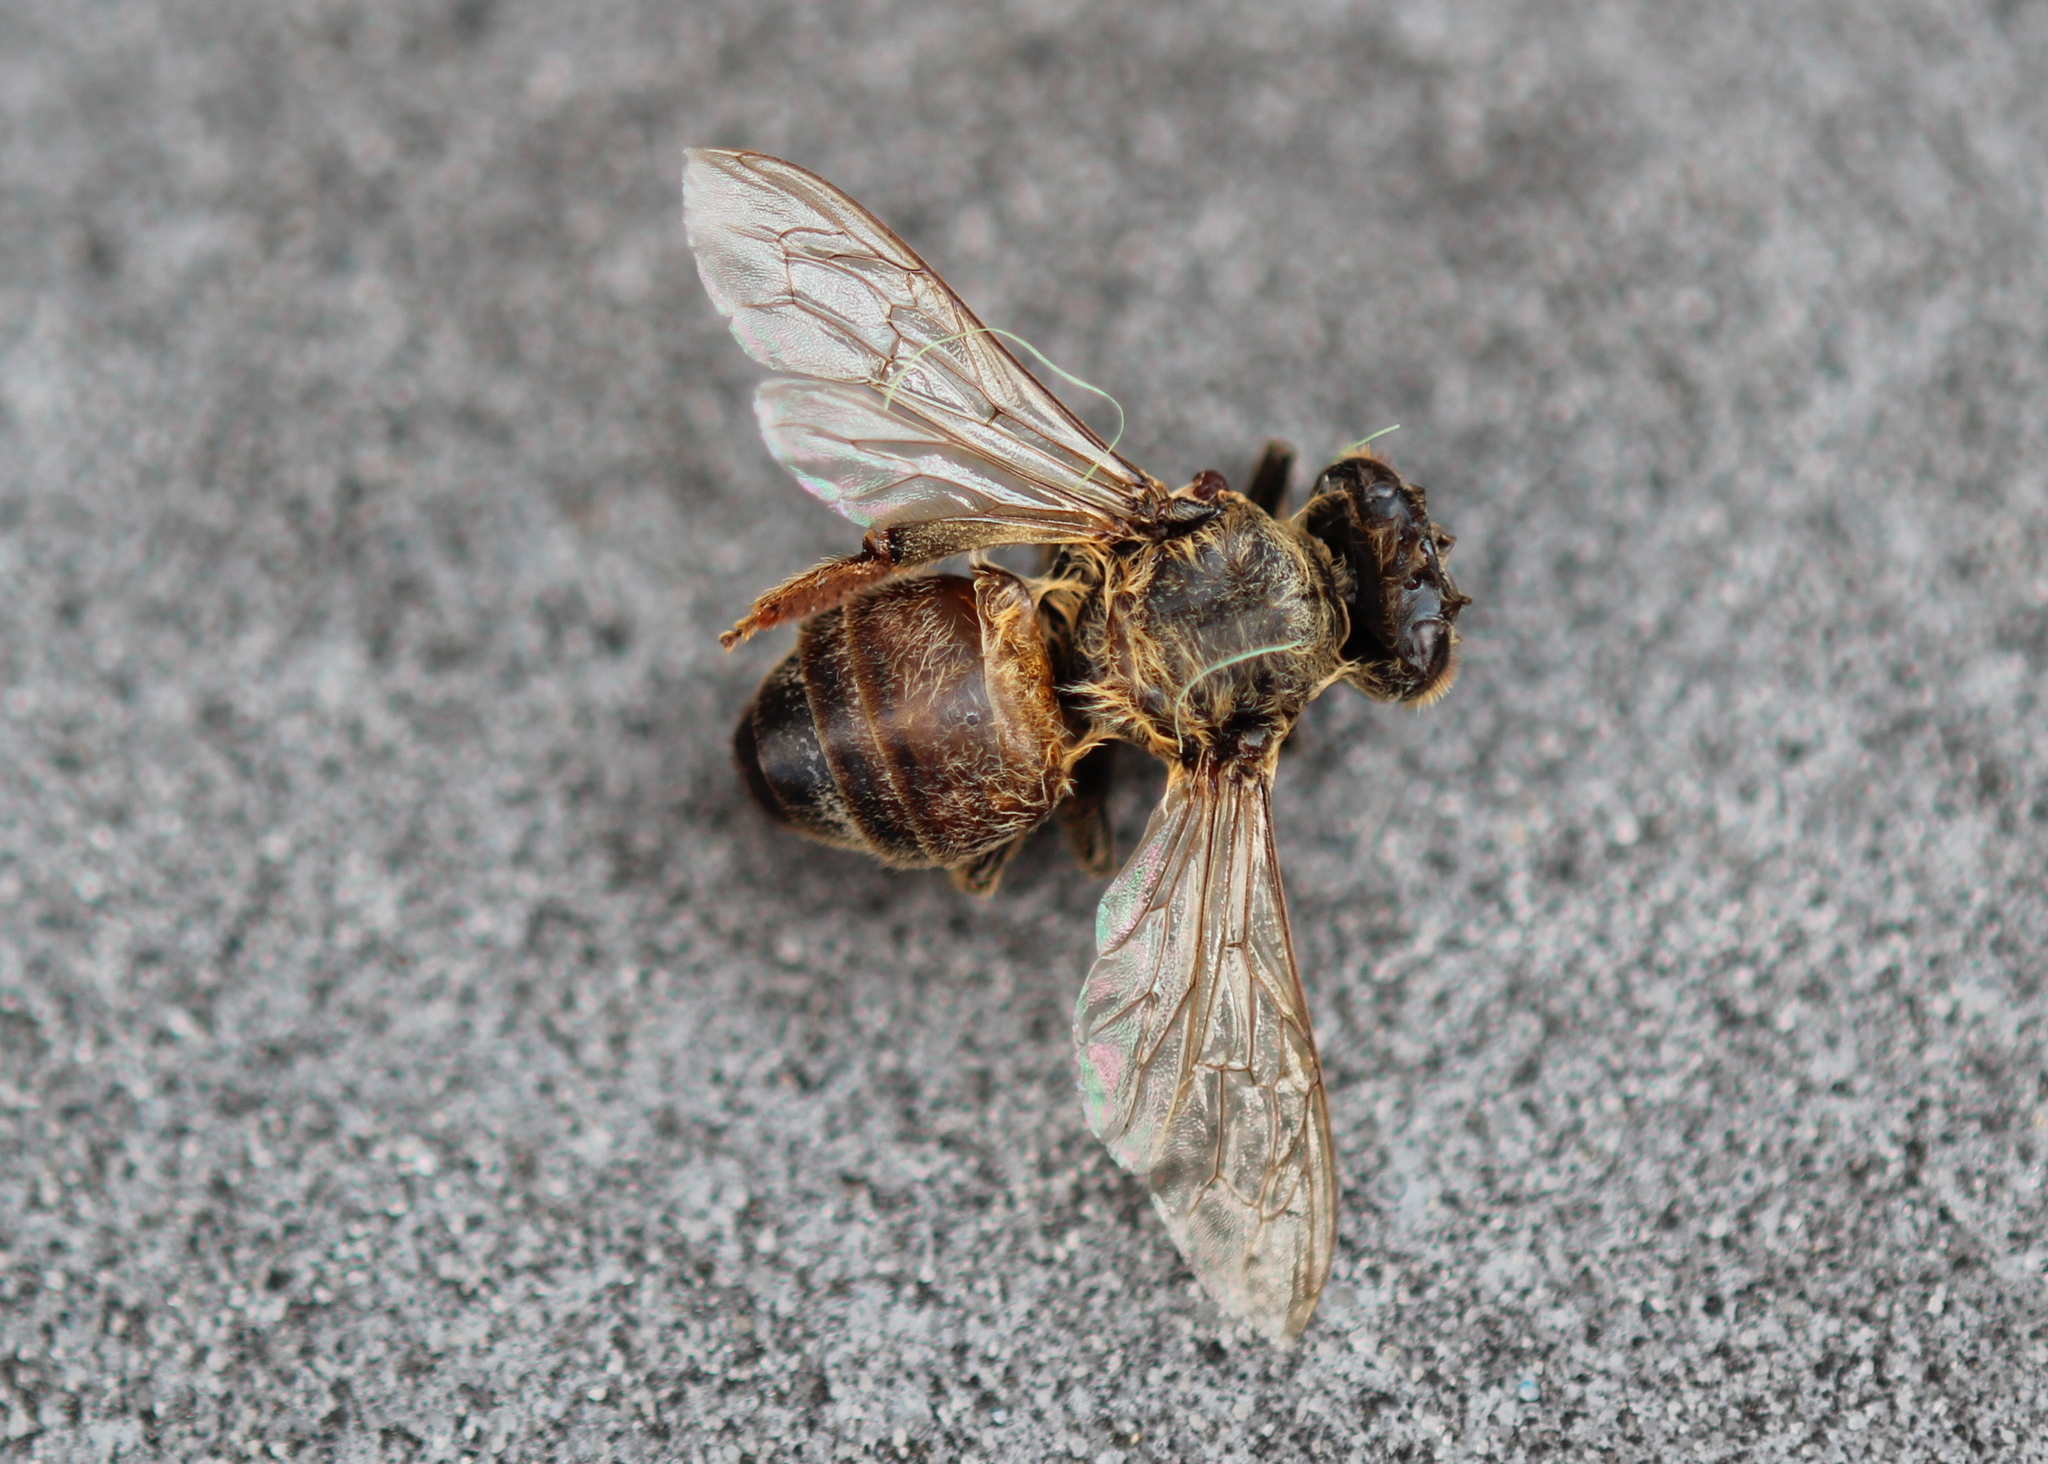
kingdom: Animalia
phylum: Arthropoda
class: Insecta
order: Hymenoptera
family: Apidae
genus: Apis
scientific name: Apis mellifera
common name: Honey bee
